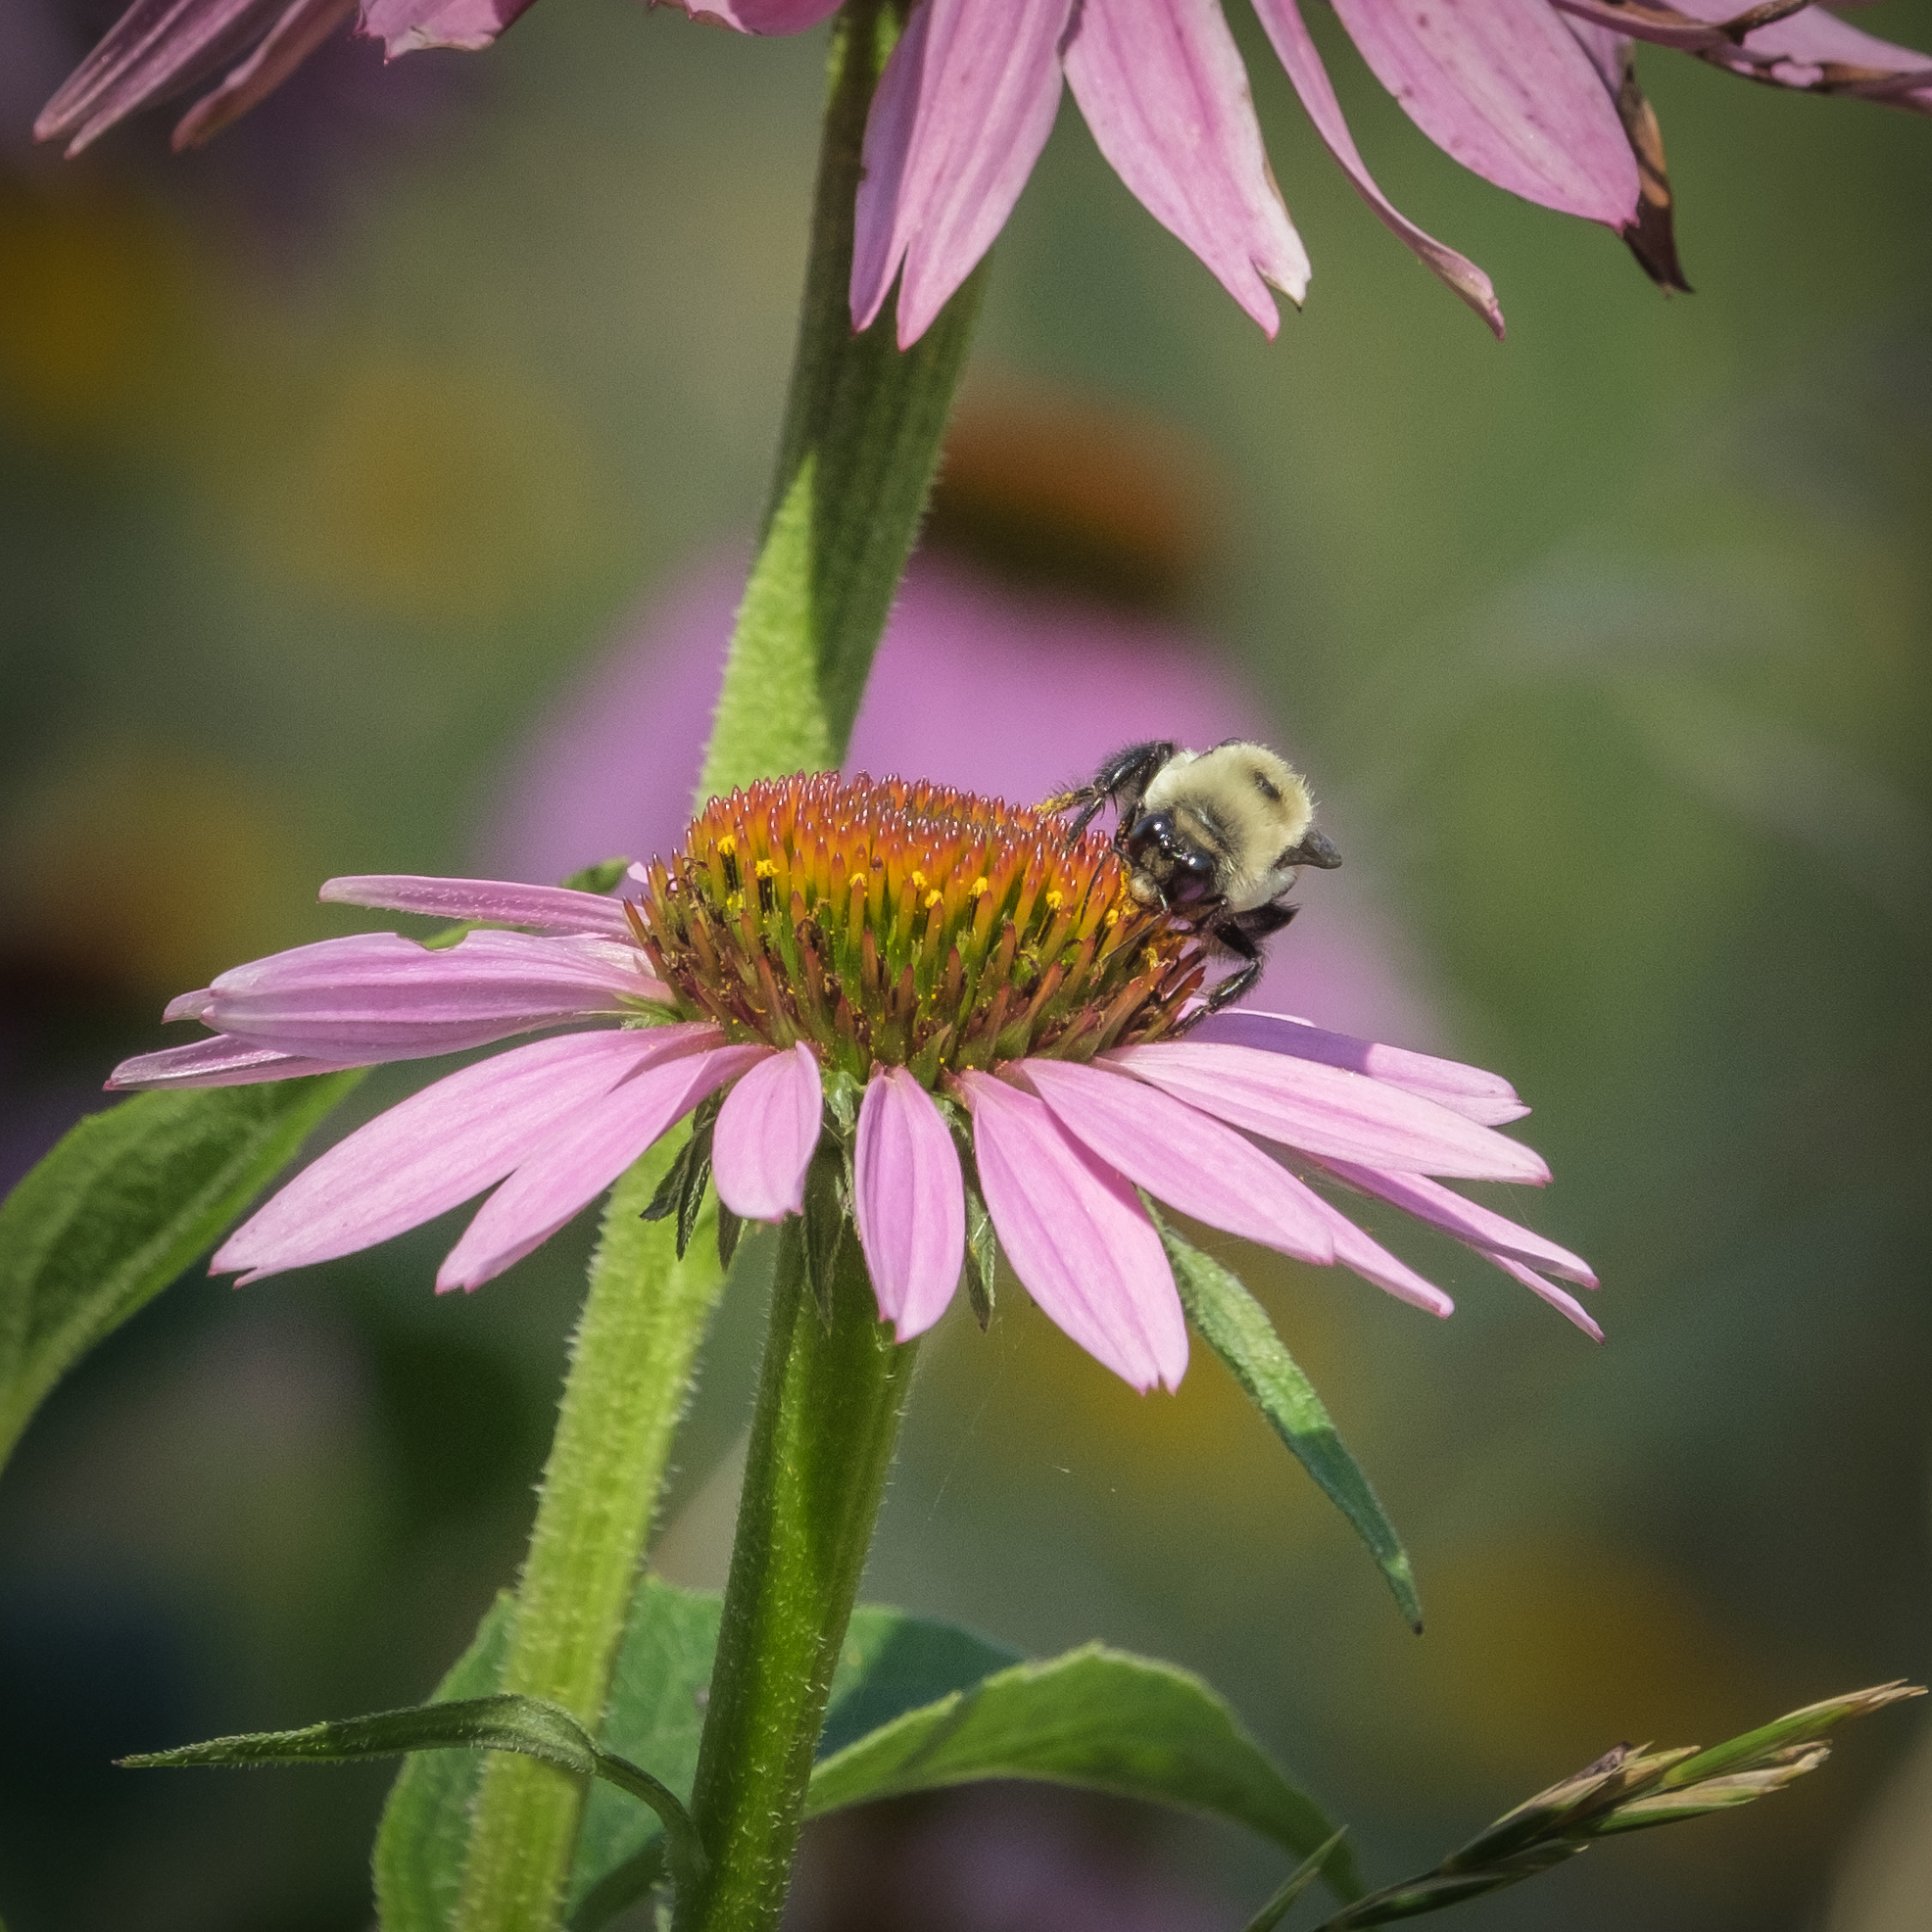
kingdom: Animalia
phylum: Arthropoda
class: Insecta
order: Hymenoptera
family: Apidae
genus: Bombus
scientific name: Bombus griseocollis
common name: Brown-belted bumble bee
